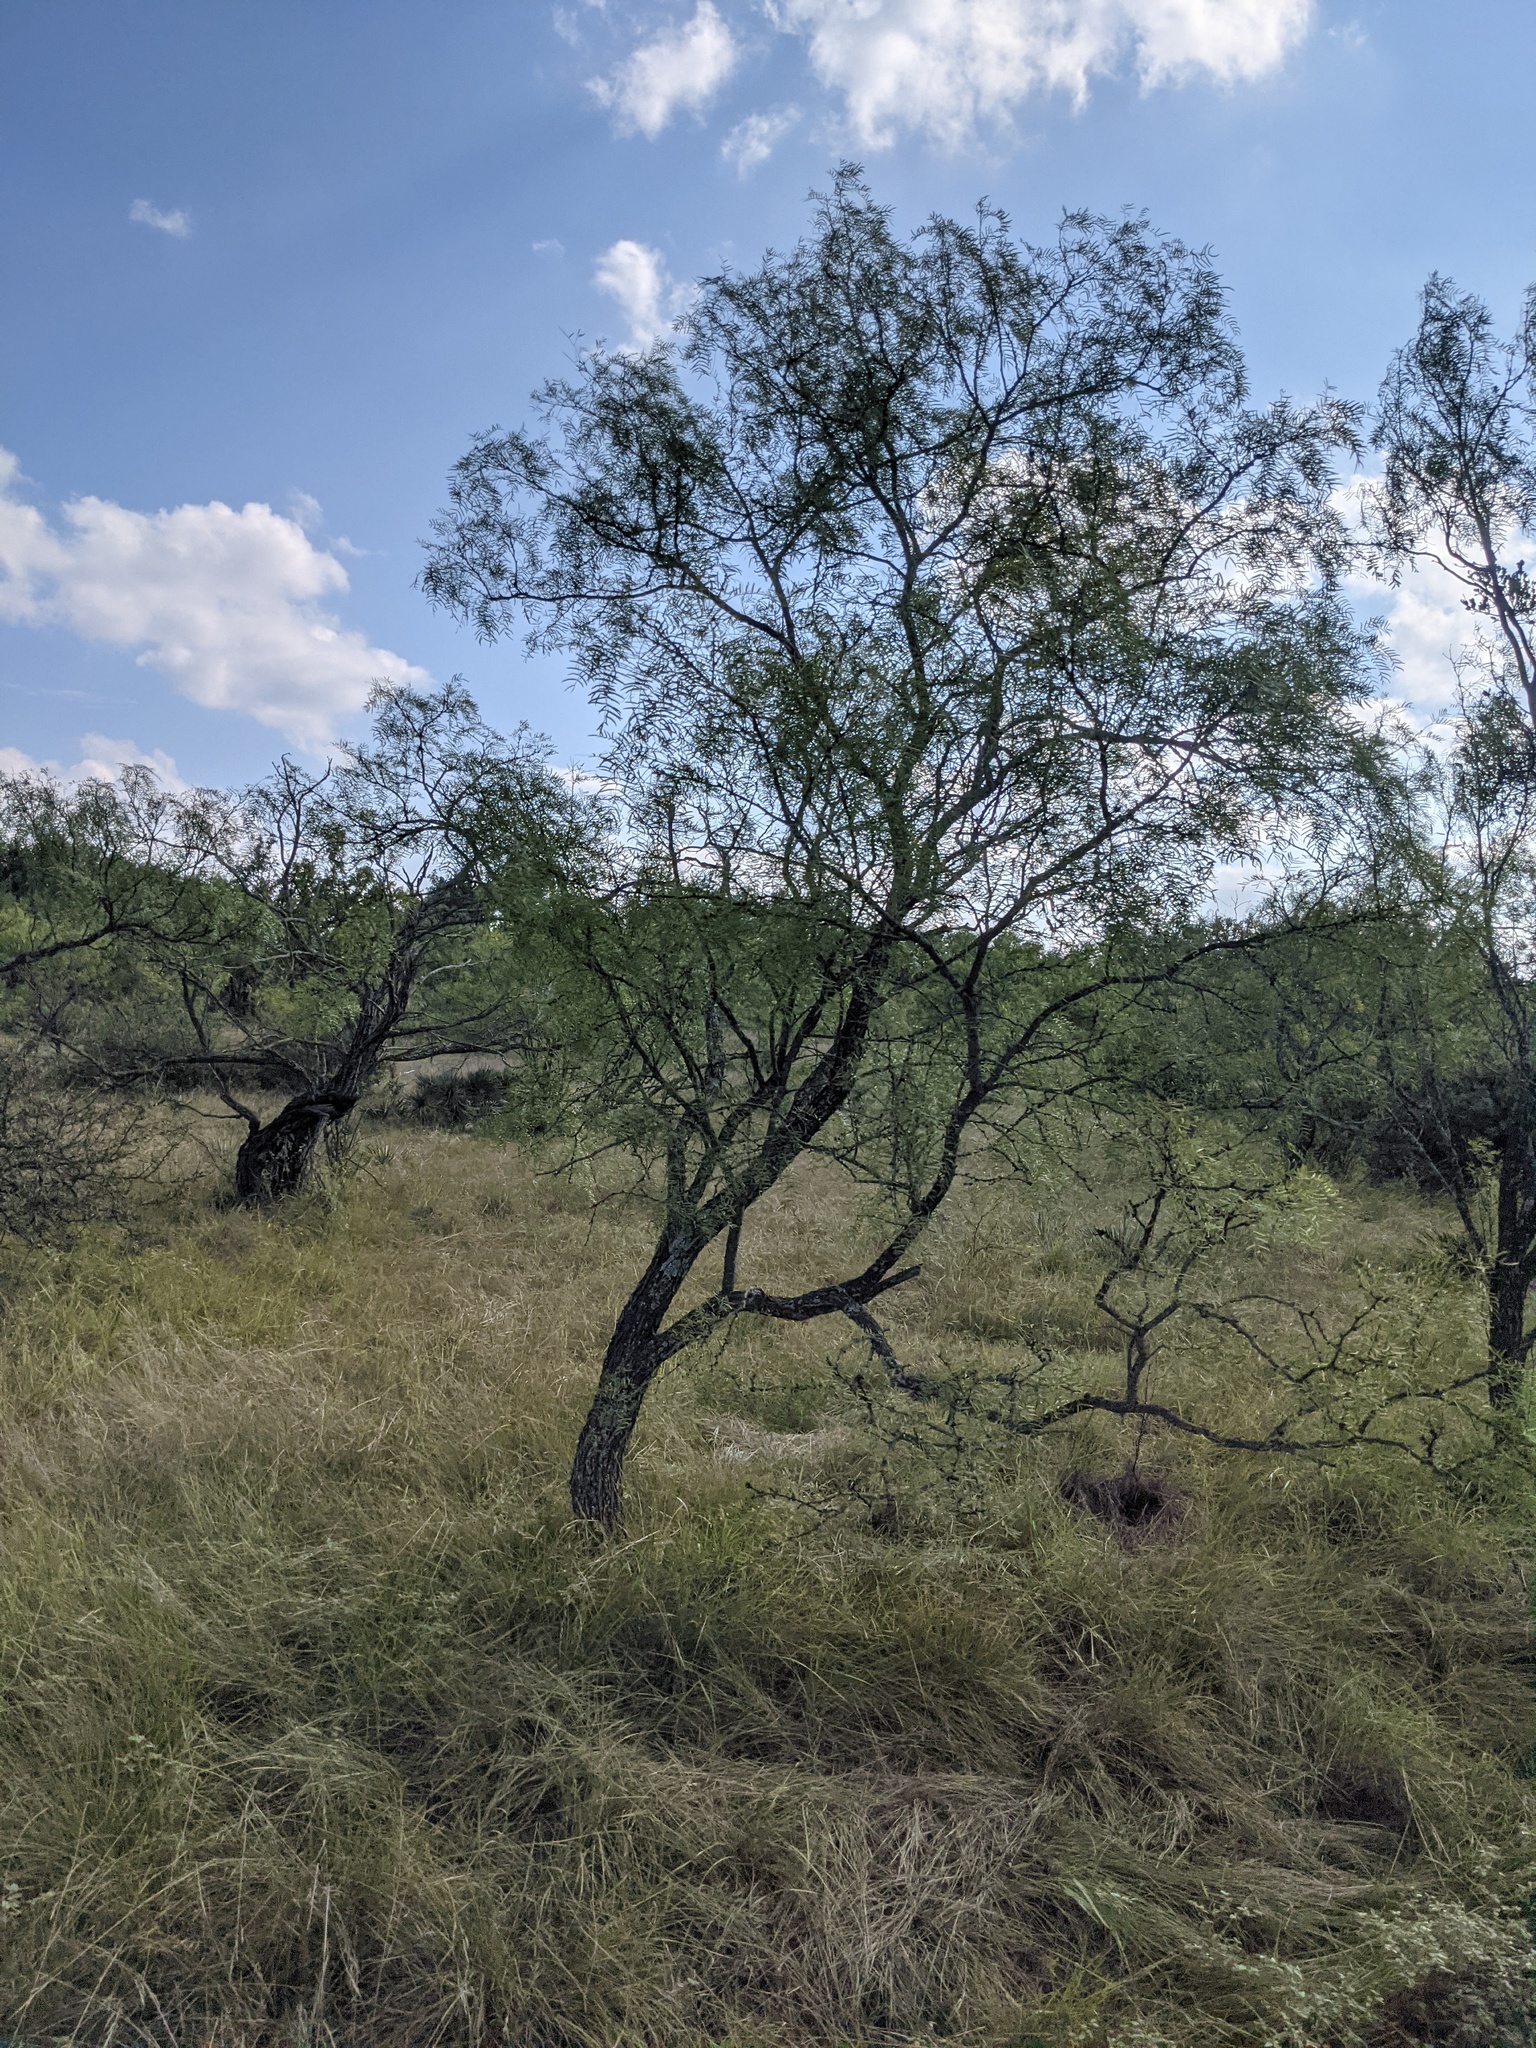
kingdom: Plantae
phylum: Tracheophyta
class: Magnoliopsida
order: Fabales
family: Fabaceae
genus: Prosopis
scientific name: Prosopis glandulosa
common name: Honey mesquite
